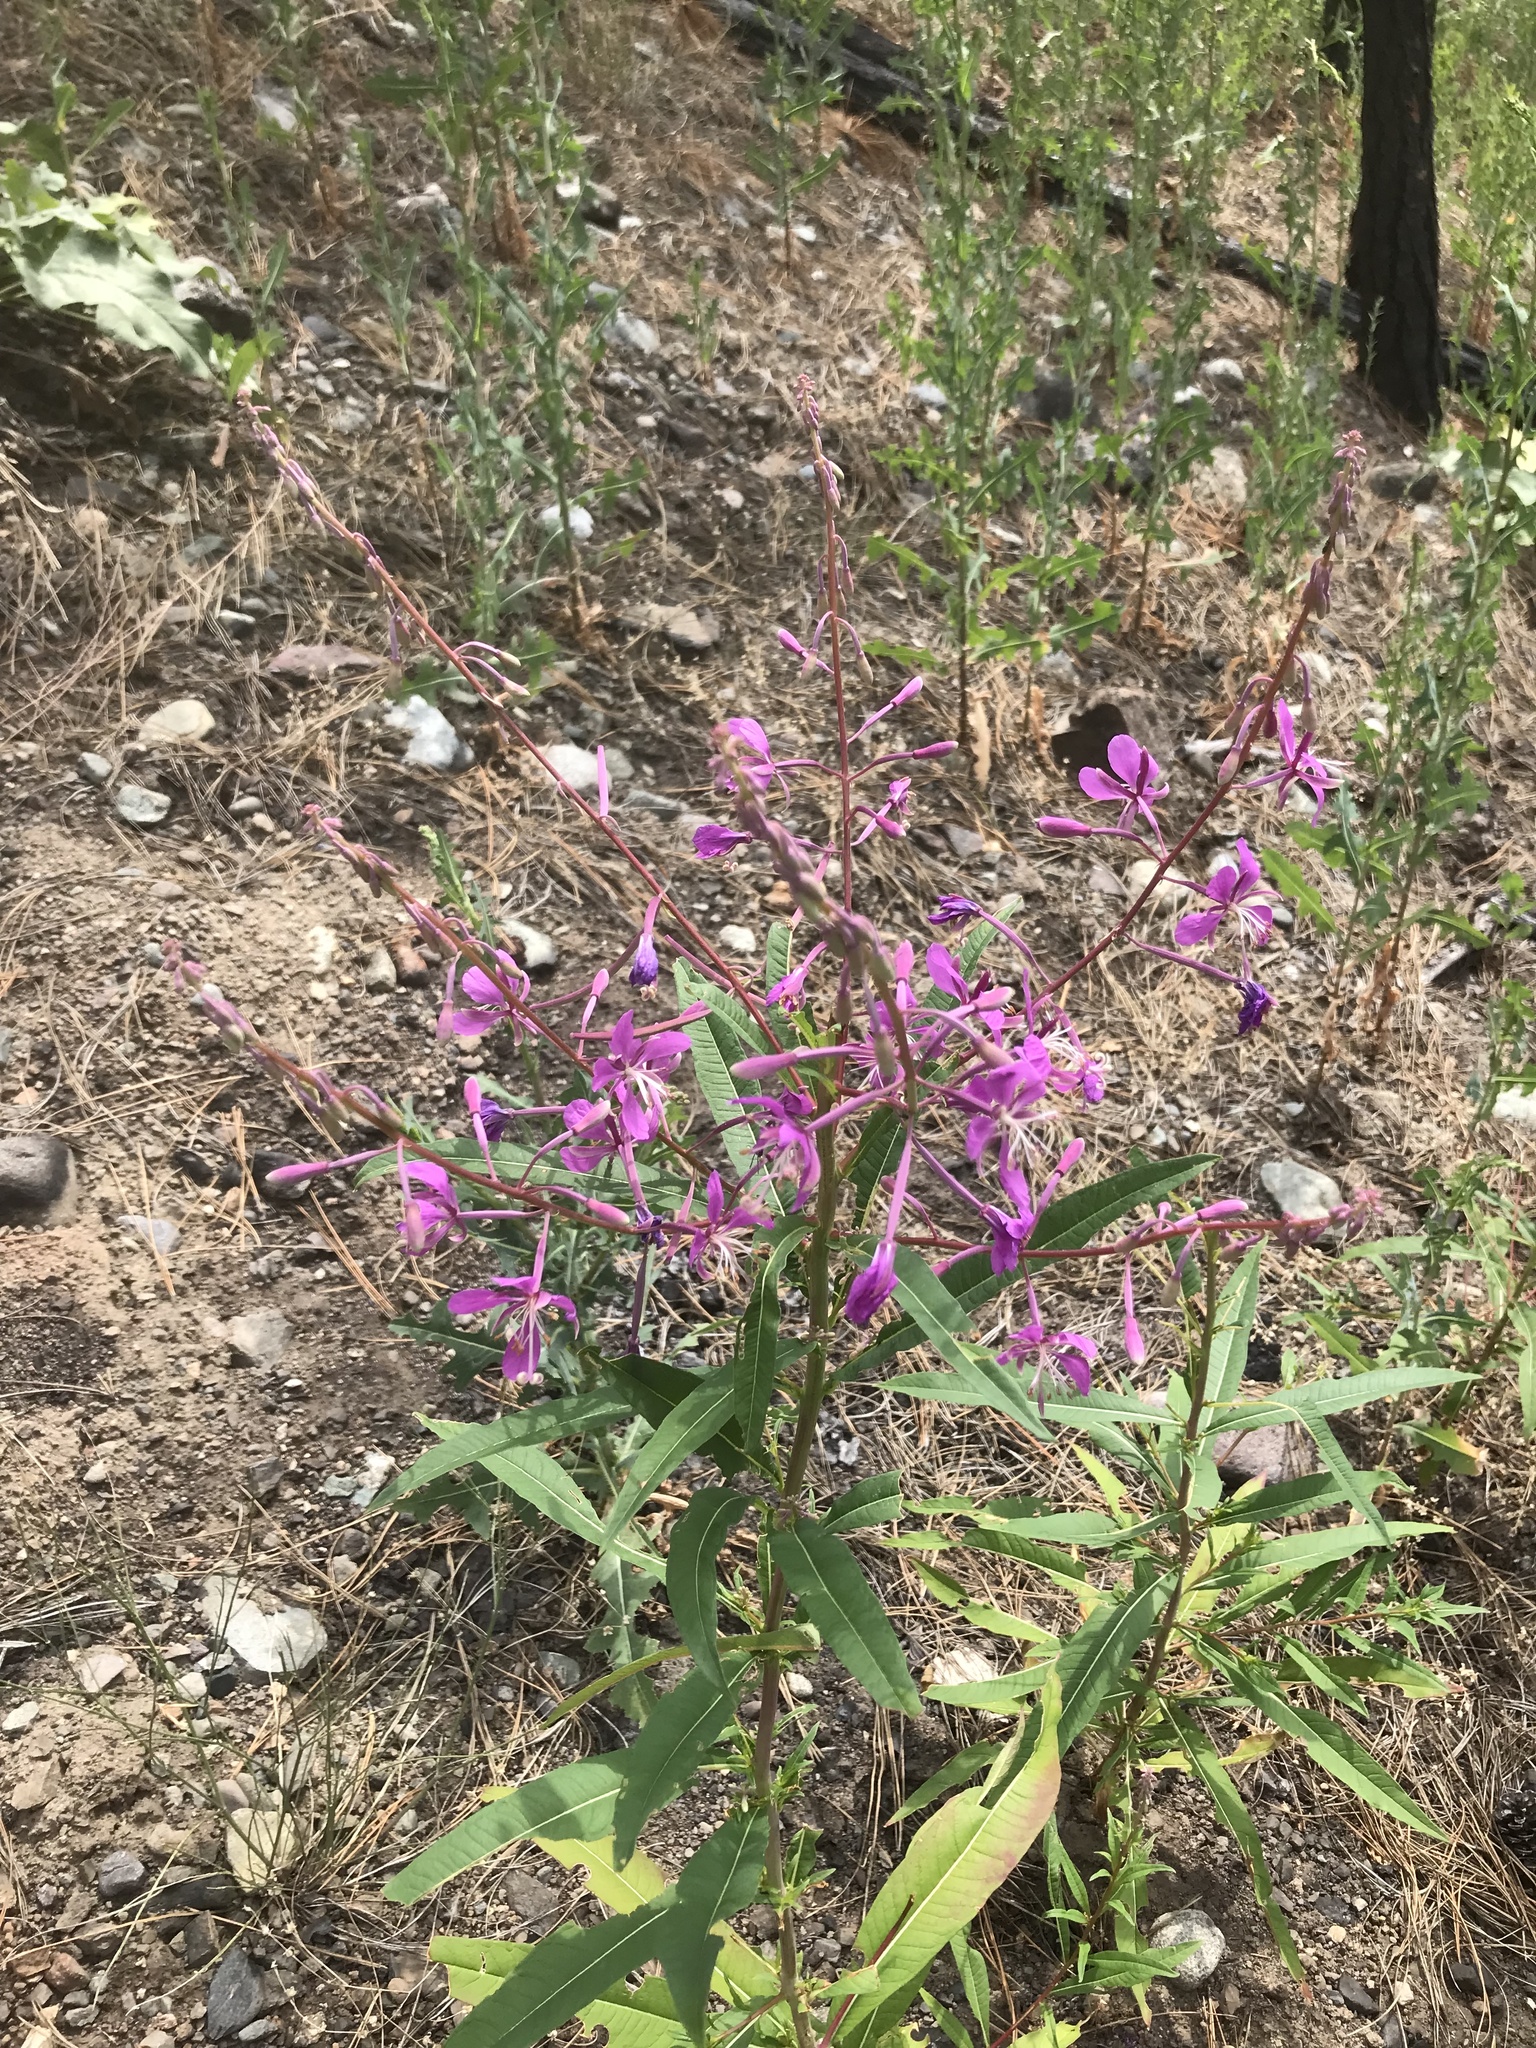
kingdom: Plantae
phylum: Tracheophyta
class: Magnoliopsida
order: Myrtales
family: Onagraceae
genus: Chamaenerion
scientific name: Chamaenerion angustifolium
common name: Fireweed
